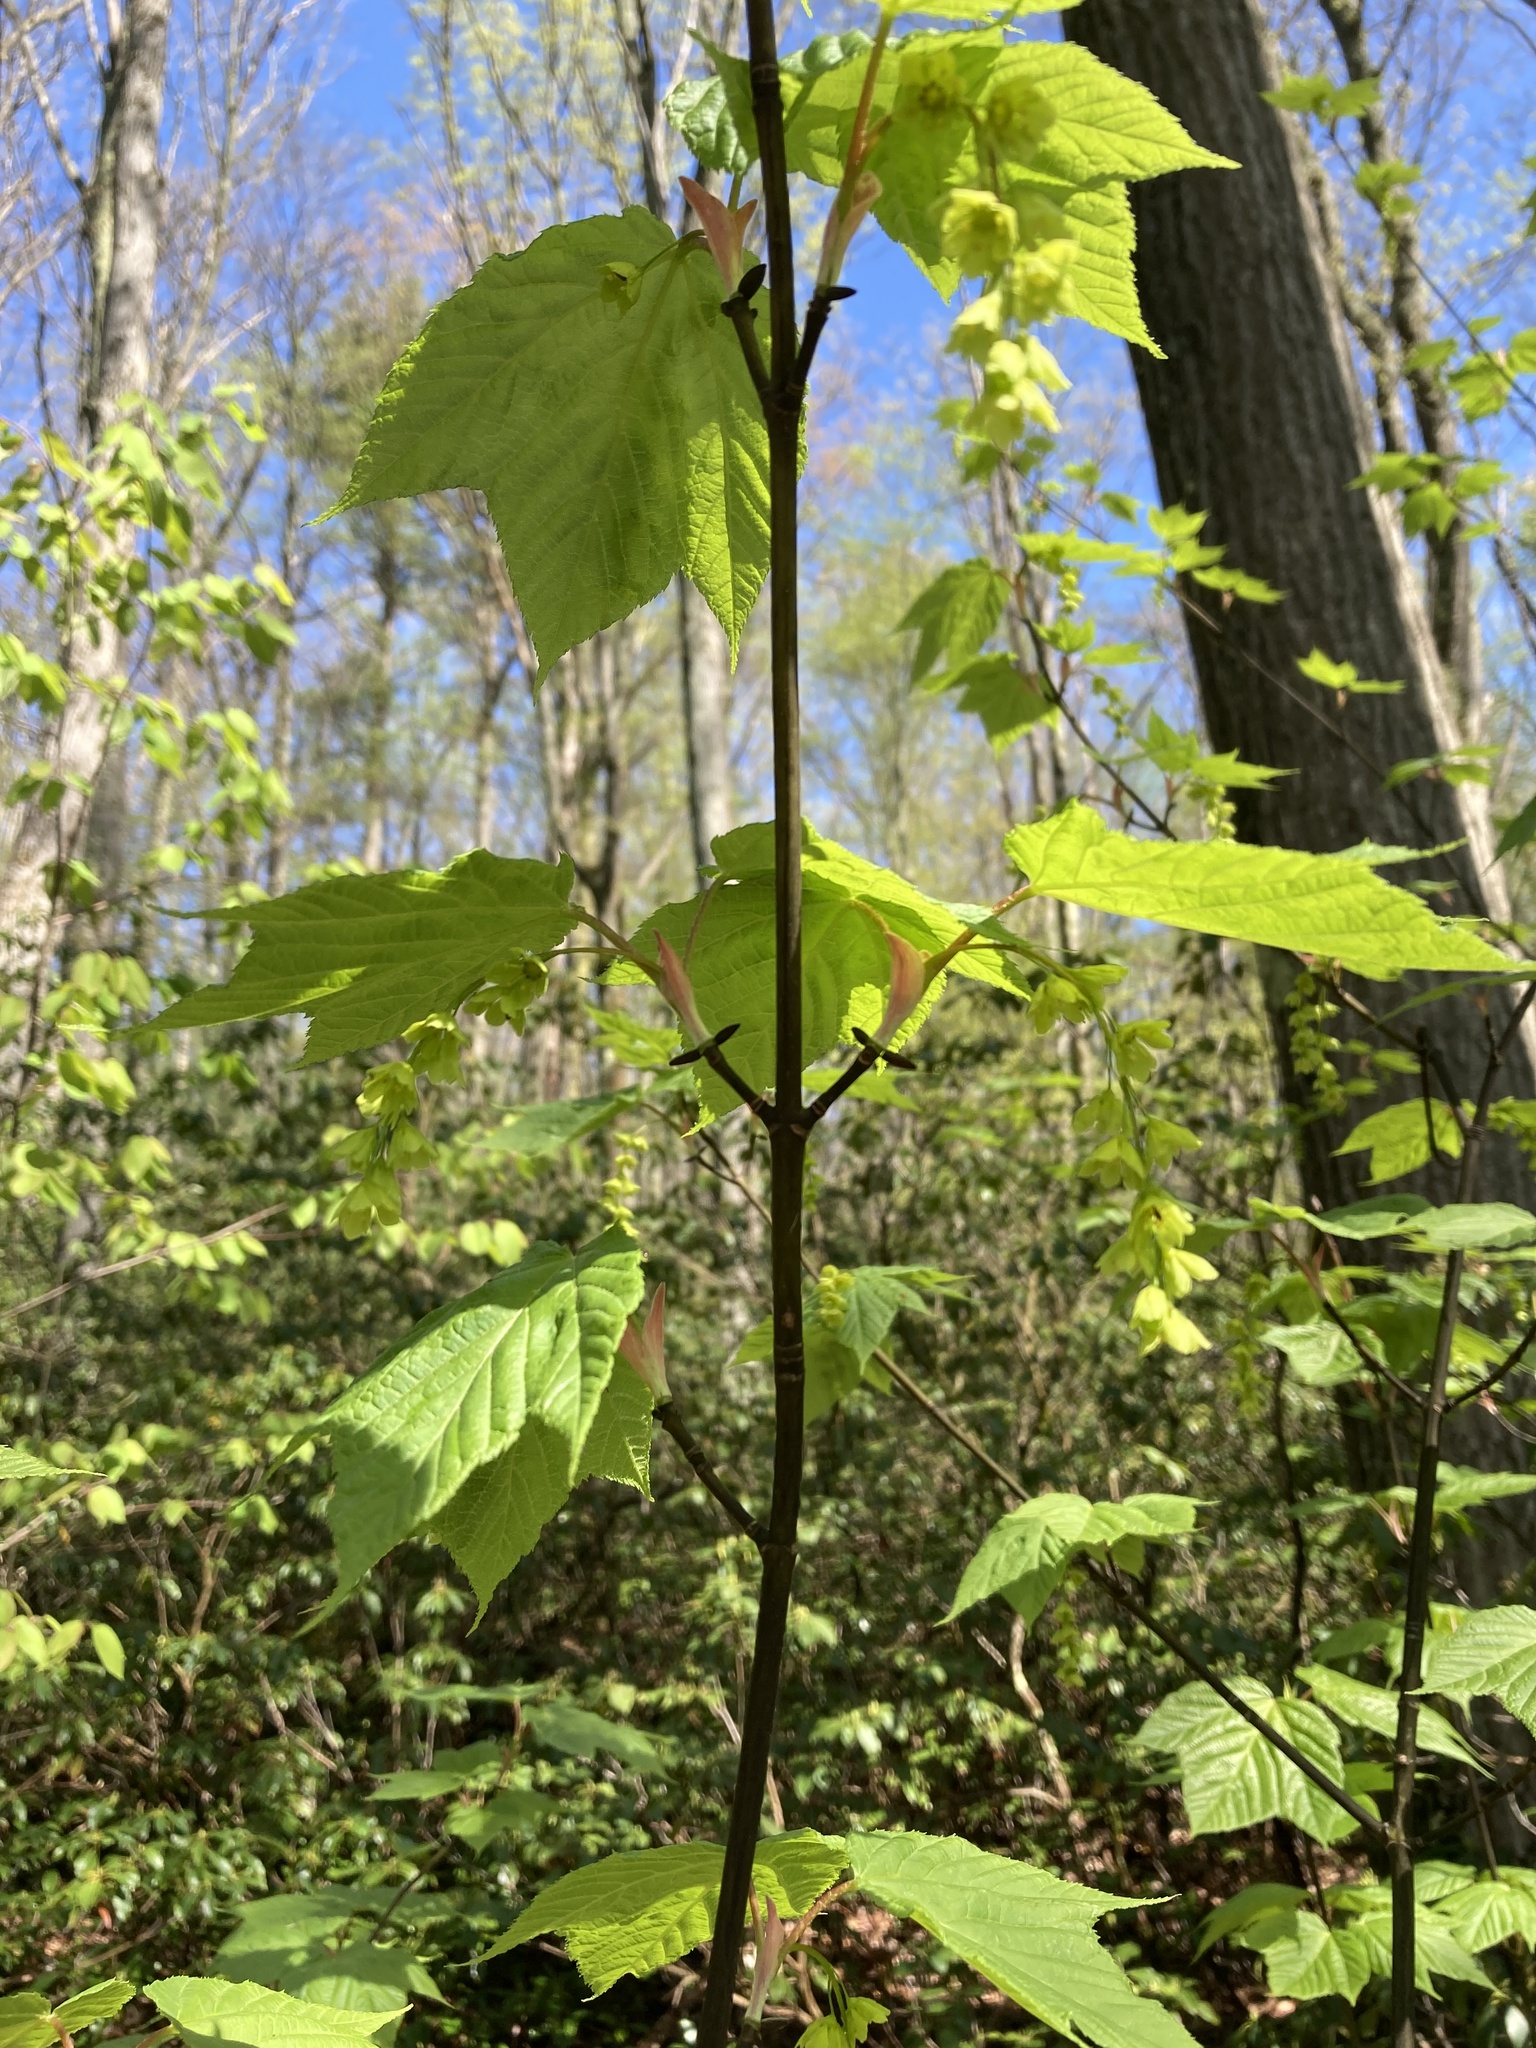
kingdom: Plantae
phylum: Tracheophyta
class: Magnoliopsida
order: Sapindales
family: Sapindaceae
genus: Acer
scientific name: Acer pensylvanicum
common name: Moosewood
